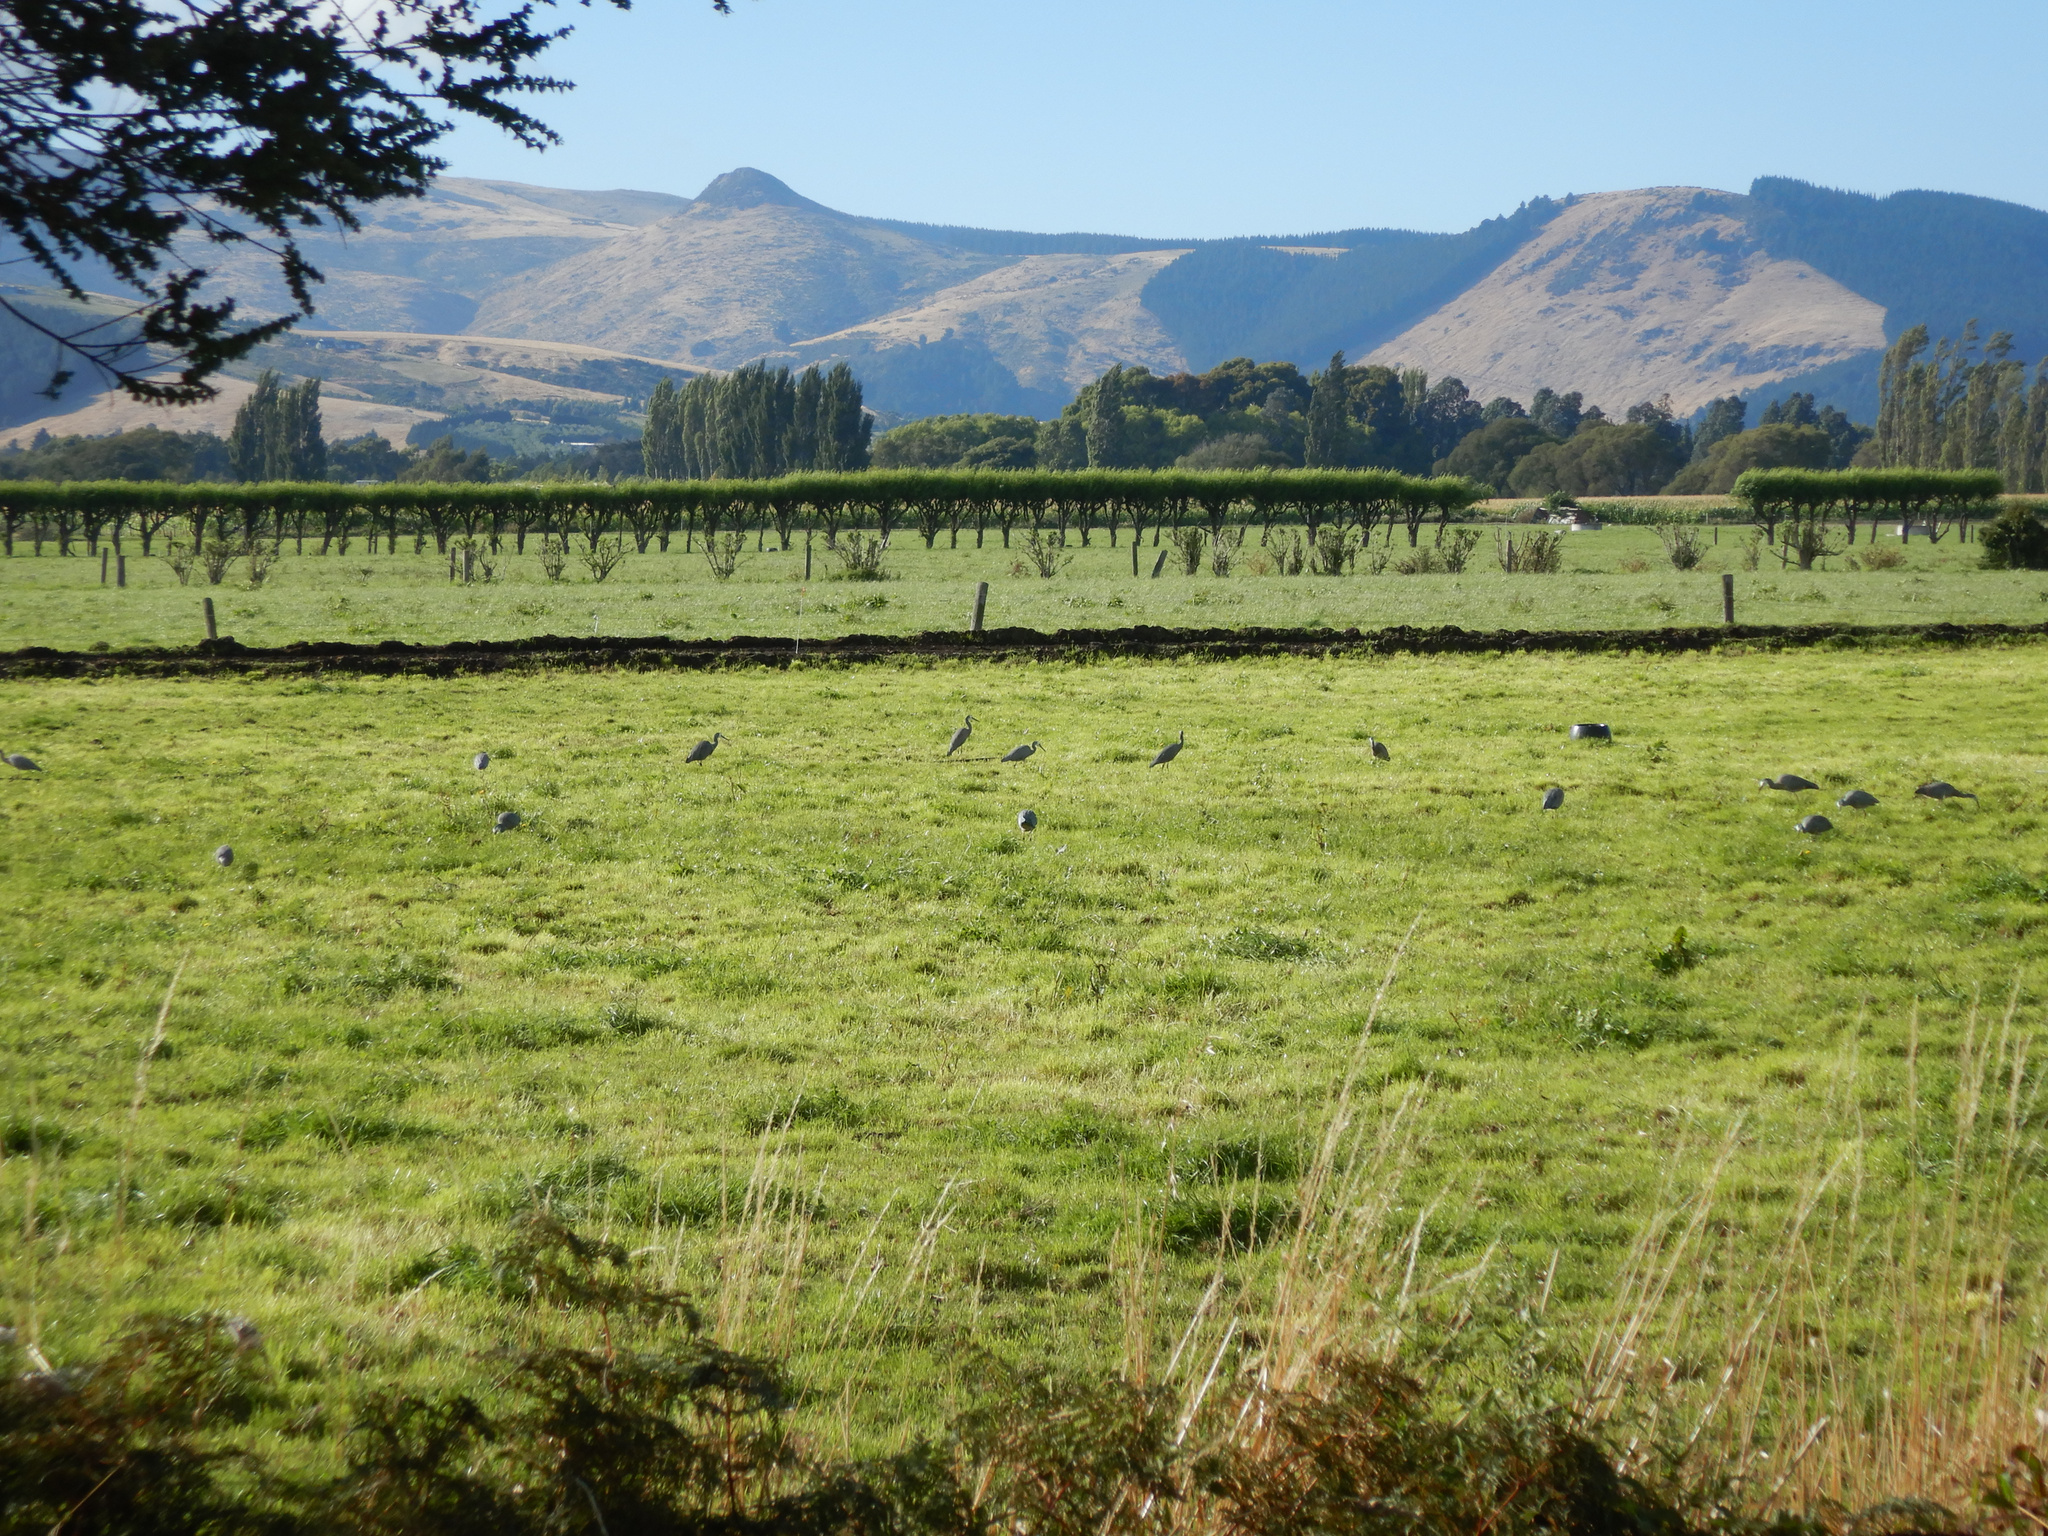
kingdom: Animalia
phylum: Chordata
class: Aves
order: Pelecaniformes
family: Ardeidae
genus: Egretta
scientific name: Egretta novaehollandiae
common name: White-faced heron
